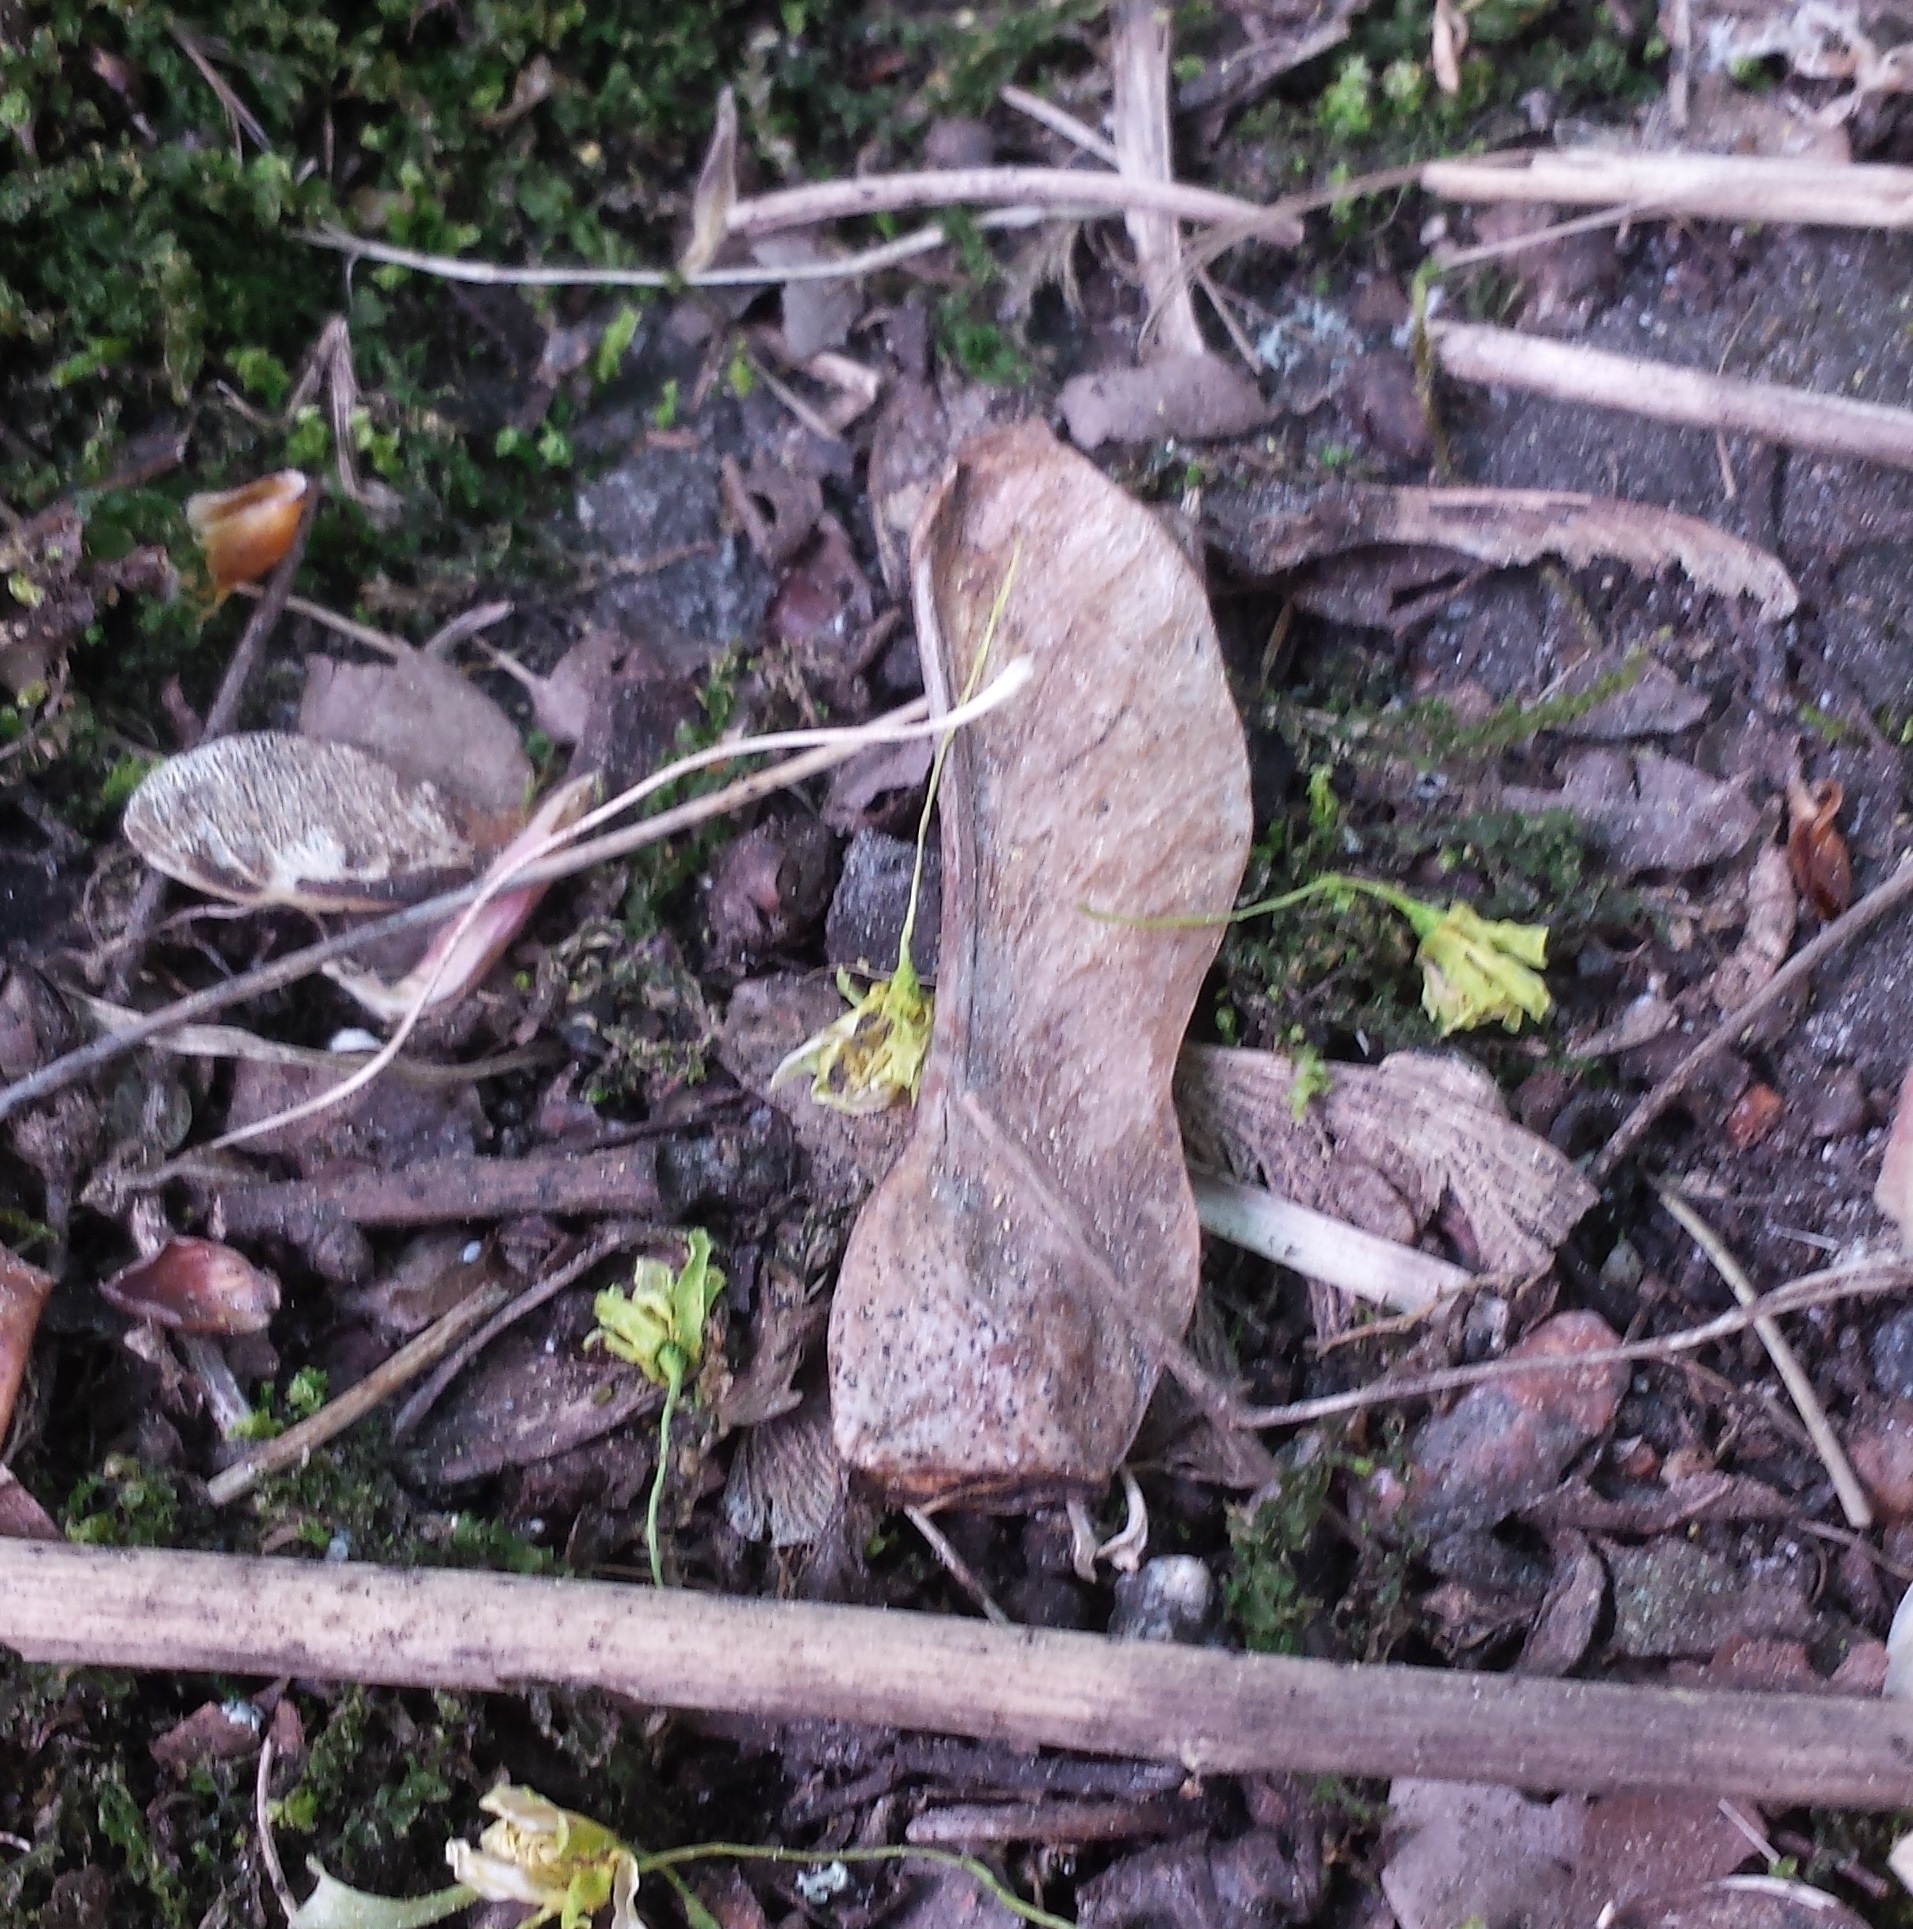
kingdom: Plantae
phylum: Tracheophyta
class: Magnoliopsida
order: Sapindales
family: Sapindaceae
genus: Acer
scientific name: Acer platanoides
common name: Norway maple
